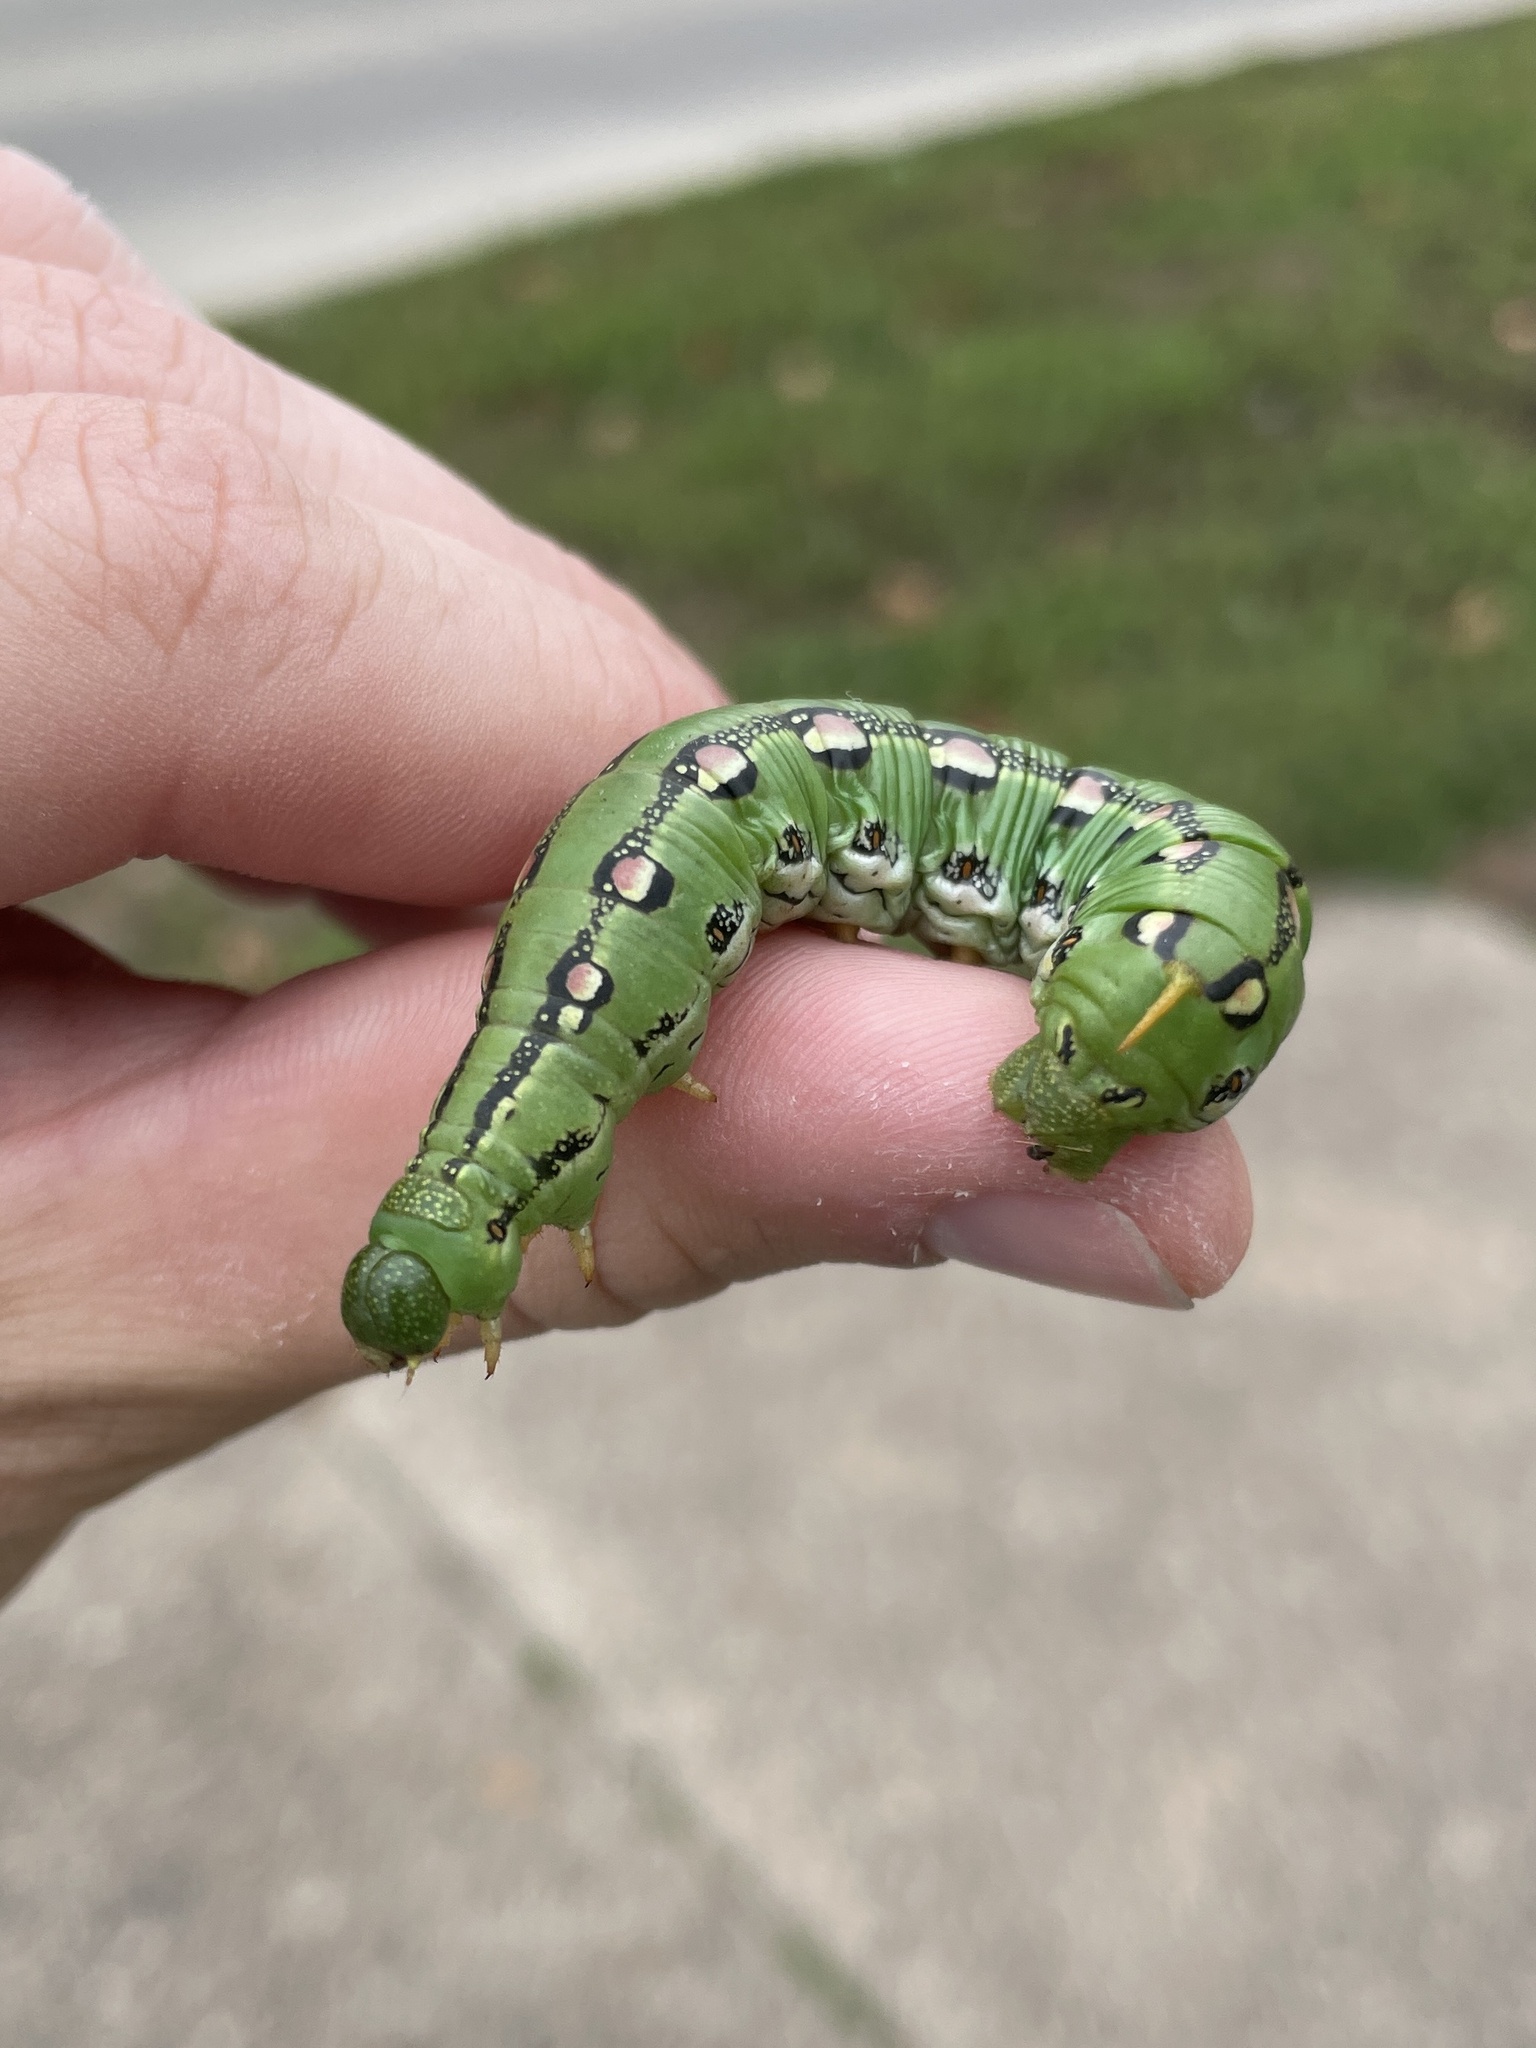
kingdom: Animalia
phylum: Arthropoda
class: Insecta
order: Lepidoptera
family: Sphingidae
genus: Hyles
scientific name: Hyles lineata
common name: White-lined sphinx
